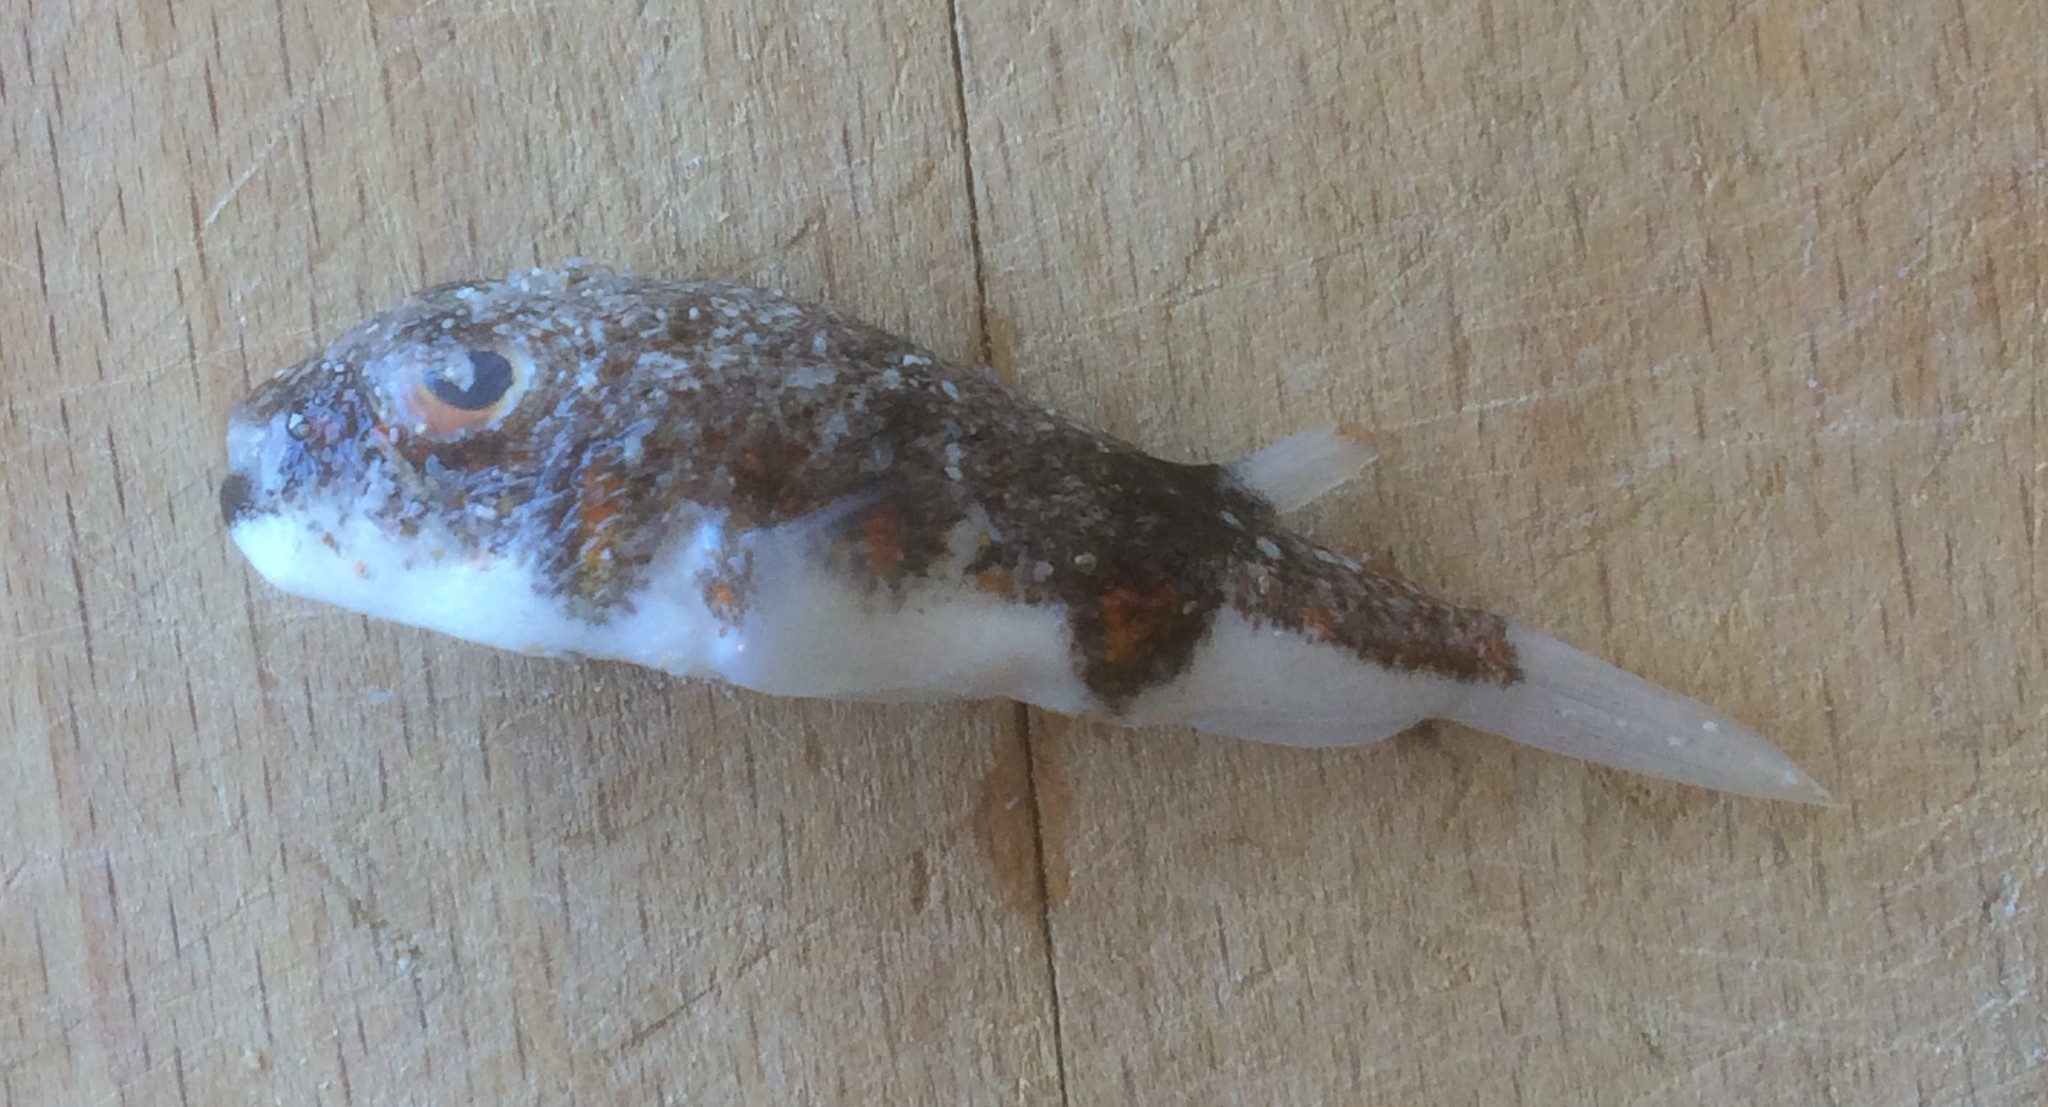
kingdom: Animalia
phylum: Chordata
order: Tetraodontiformes
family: Tetraodontidae
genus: Polyspina
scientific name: Polyspina piosae
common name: Orange-barred pufferfish
